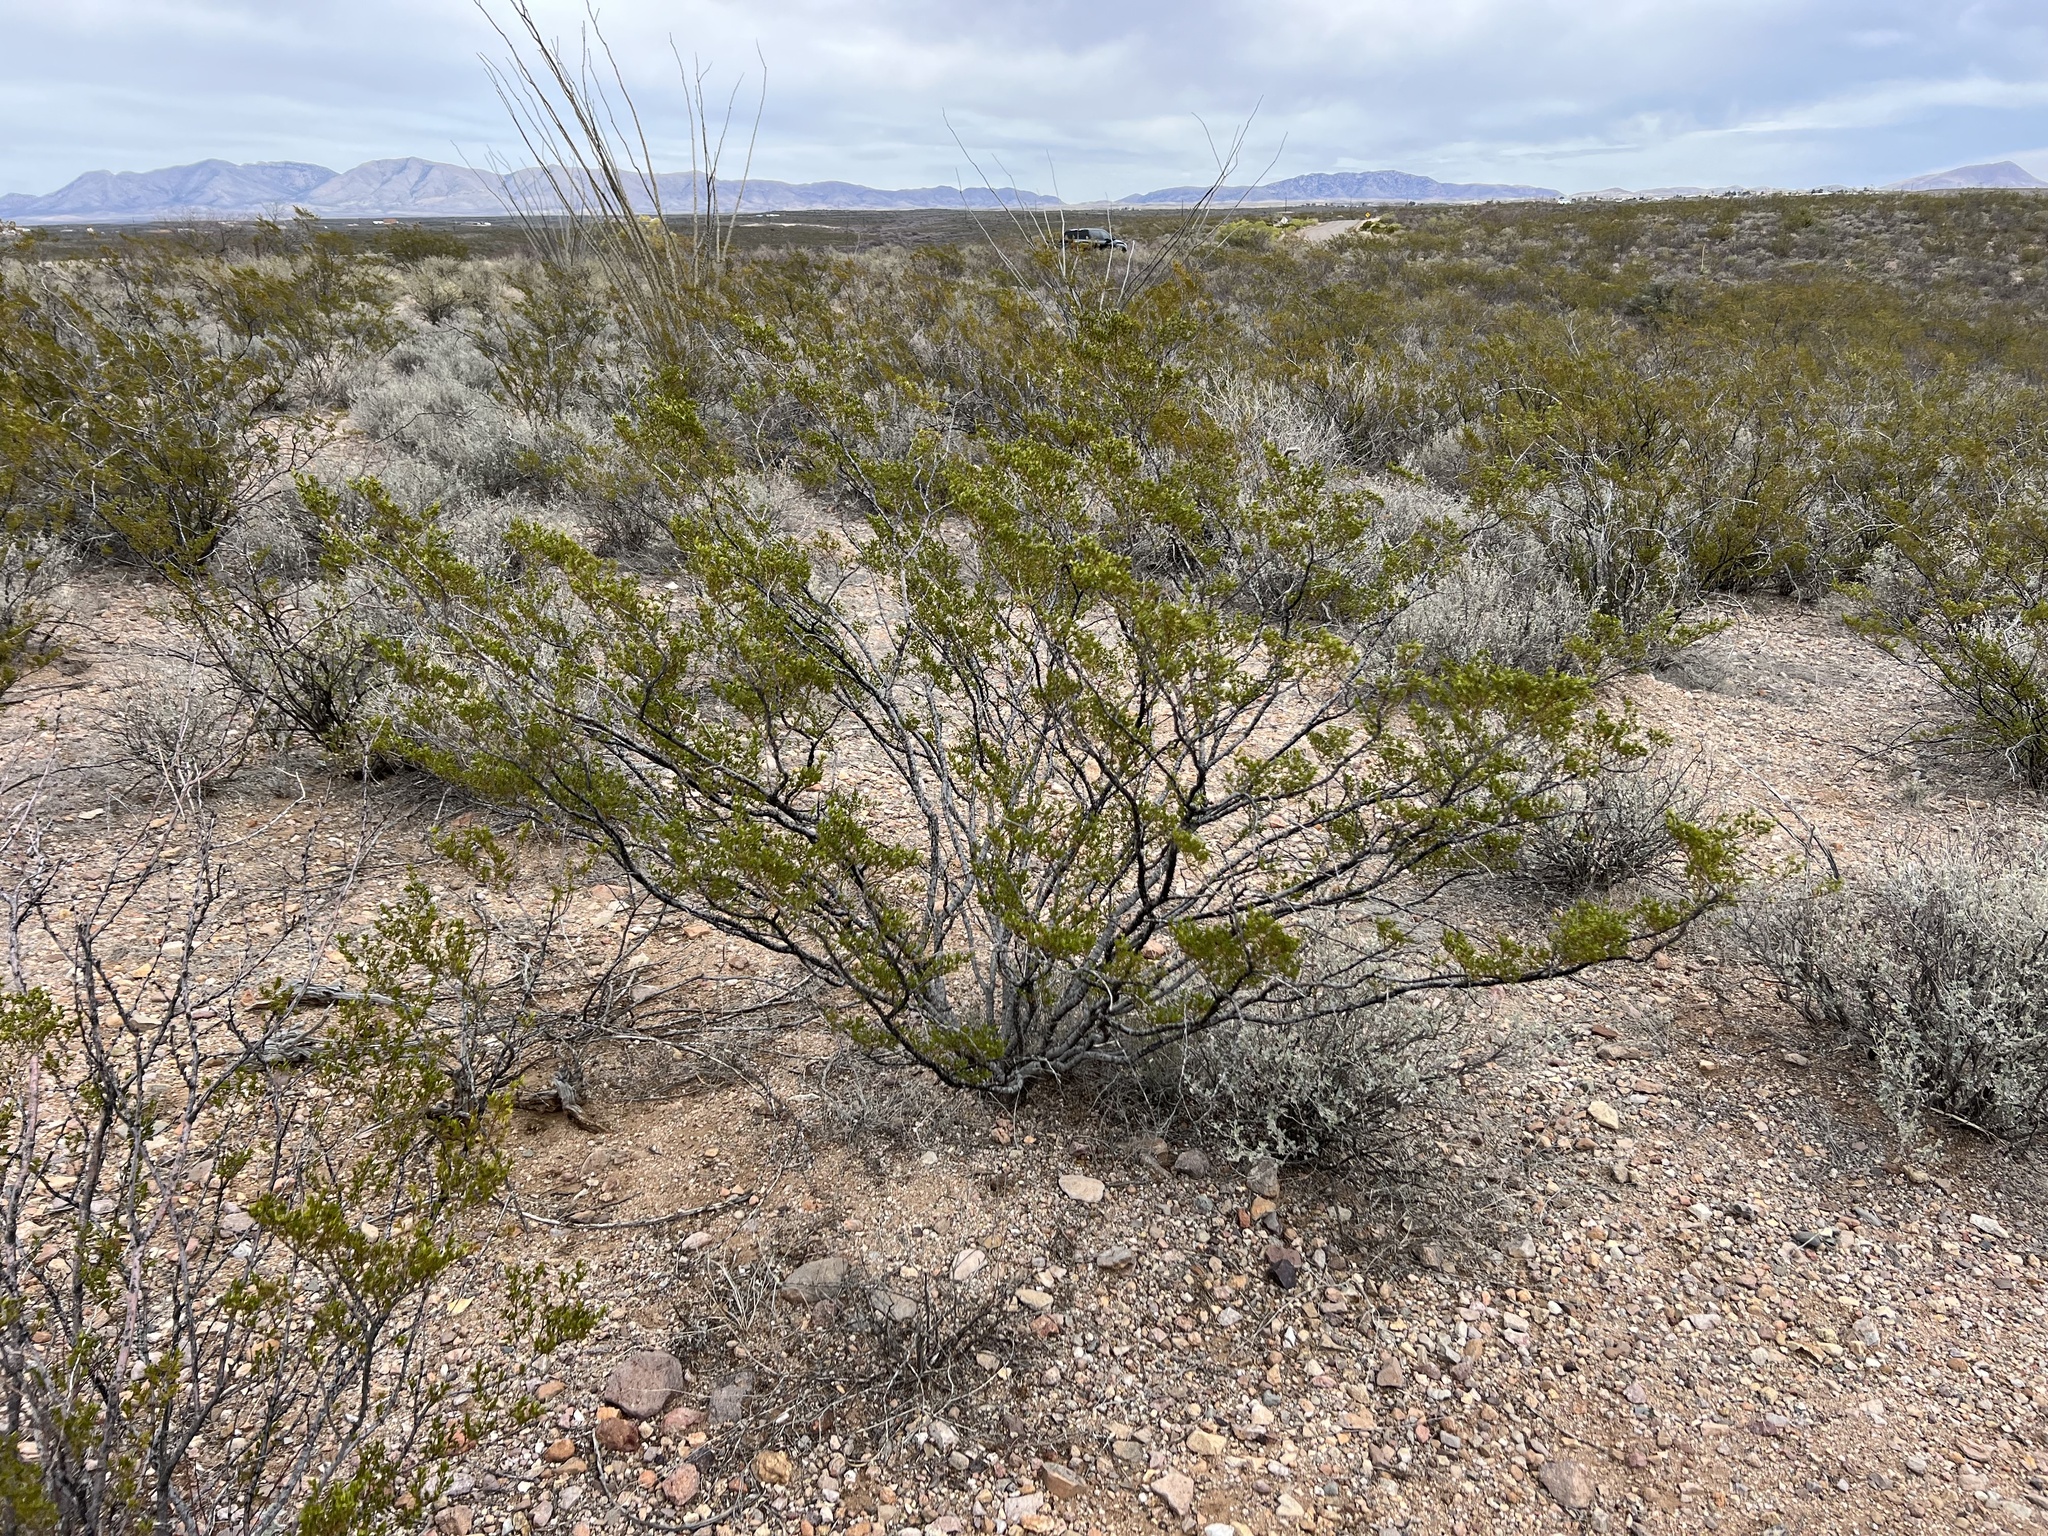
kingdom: Plantae
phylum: Tracheophyta
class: Magnoliopsida
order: Zygophyllales
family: Zygophyllaceae
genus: Larrea
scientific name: Larrea tridentata
